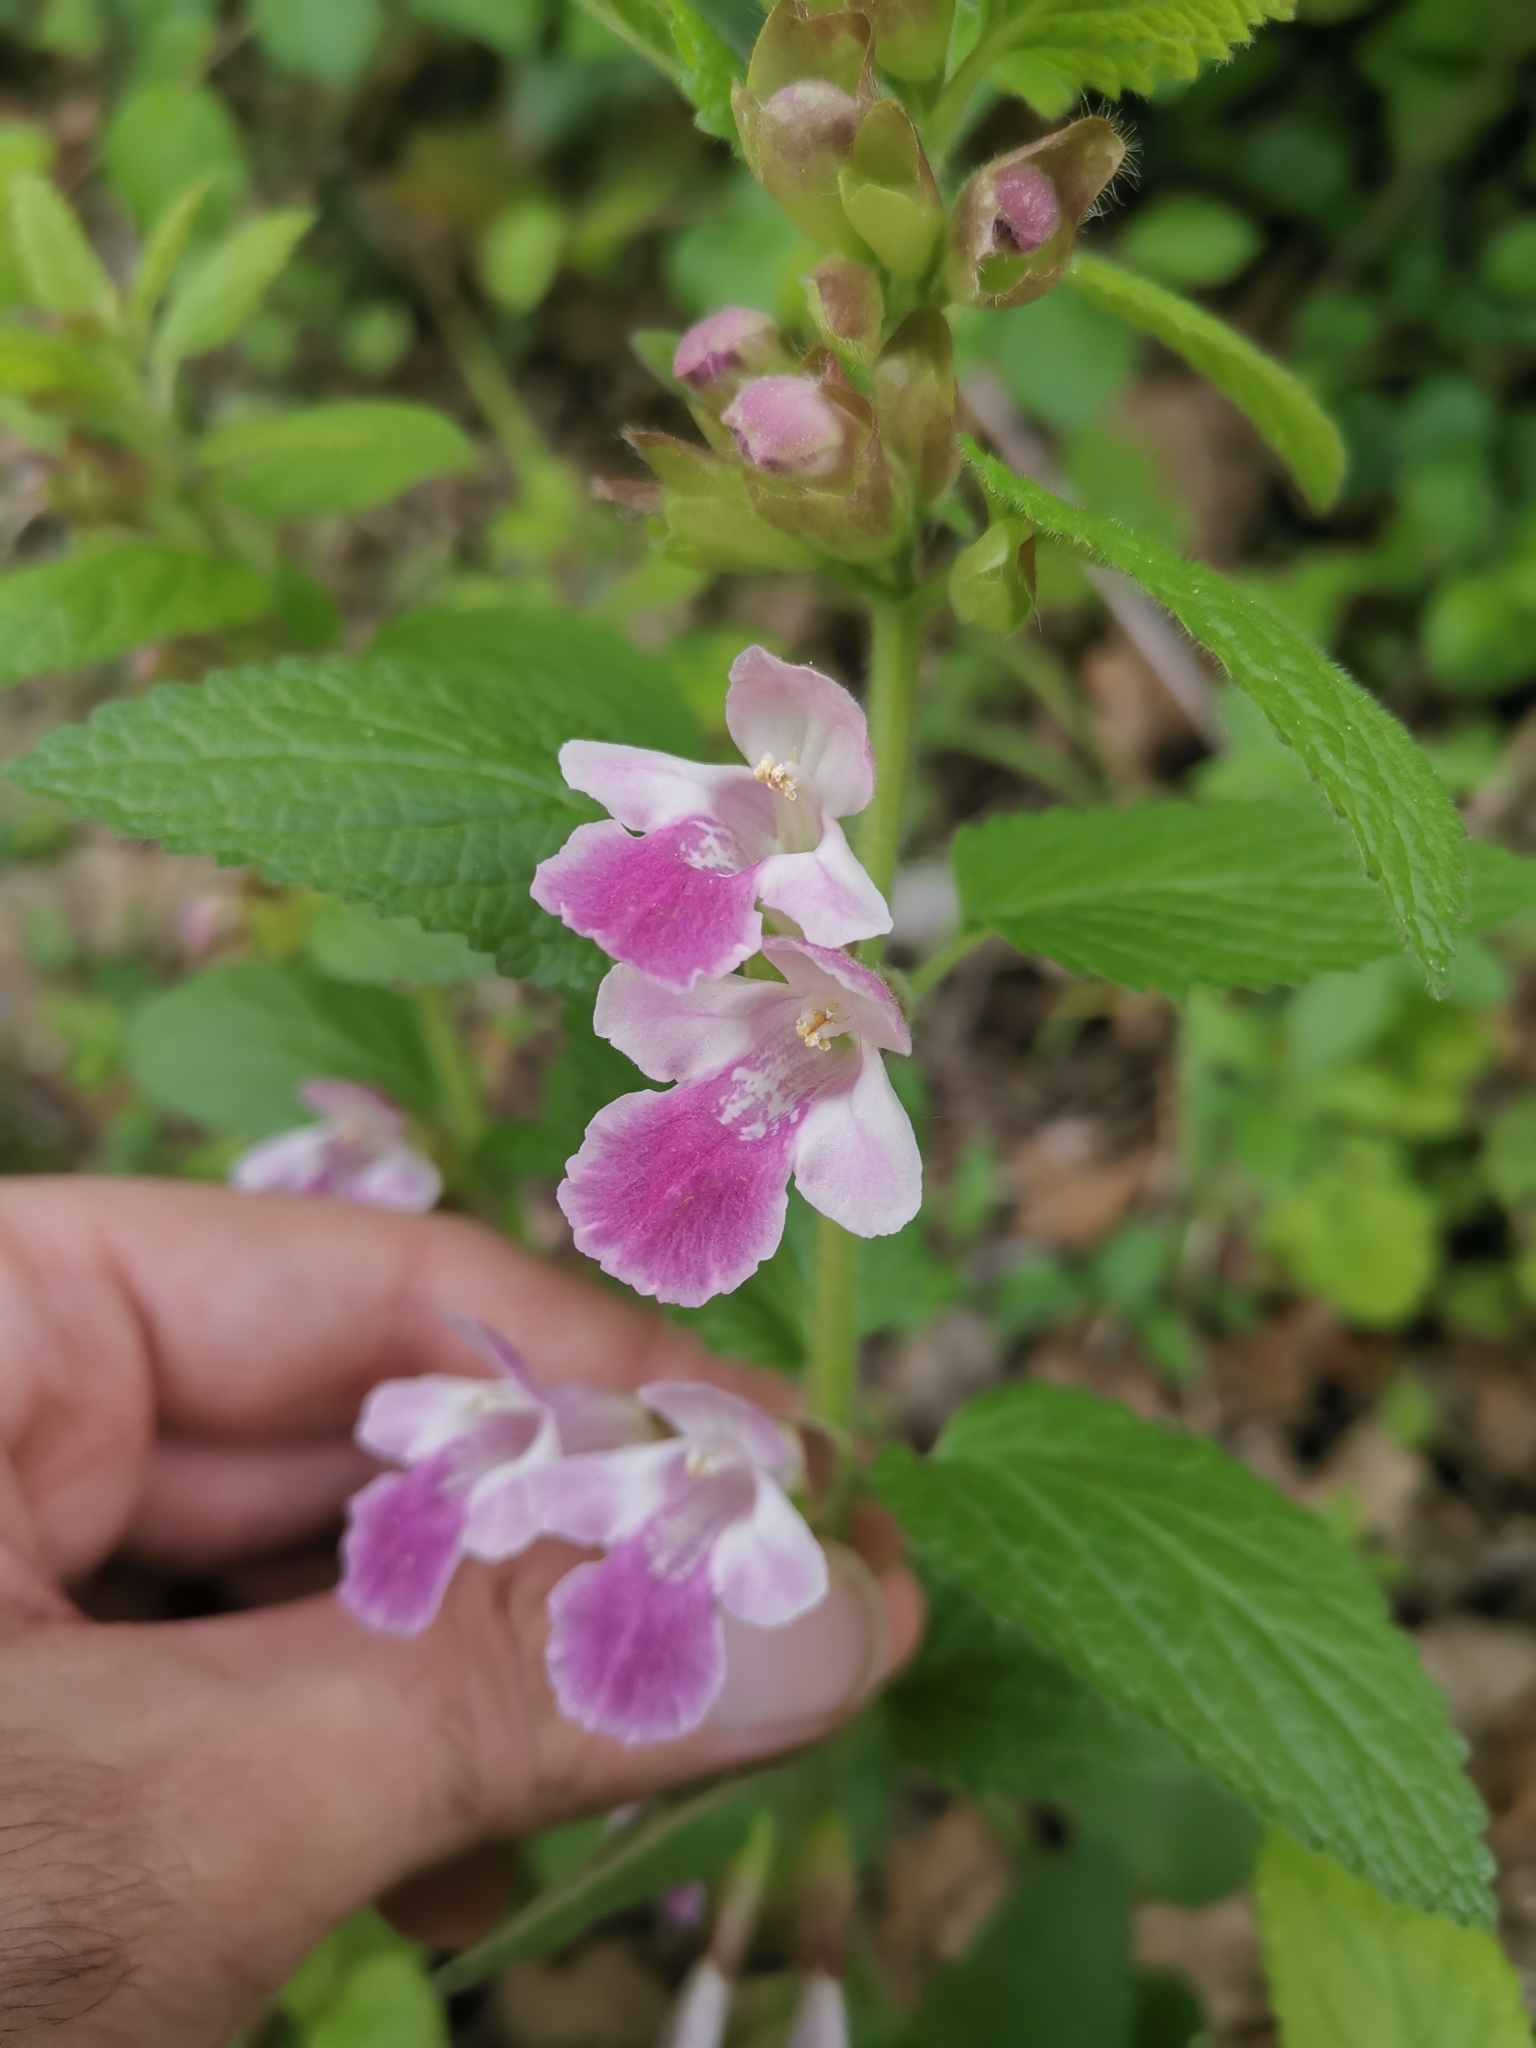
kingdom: Plantae
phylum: Tracheophyta
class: Magnoliopsida
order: Lamiales
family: Lamiaceae
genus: Melittis
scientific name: Melittis melissophyllum
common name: Bastard balm
